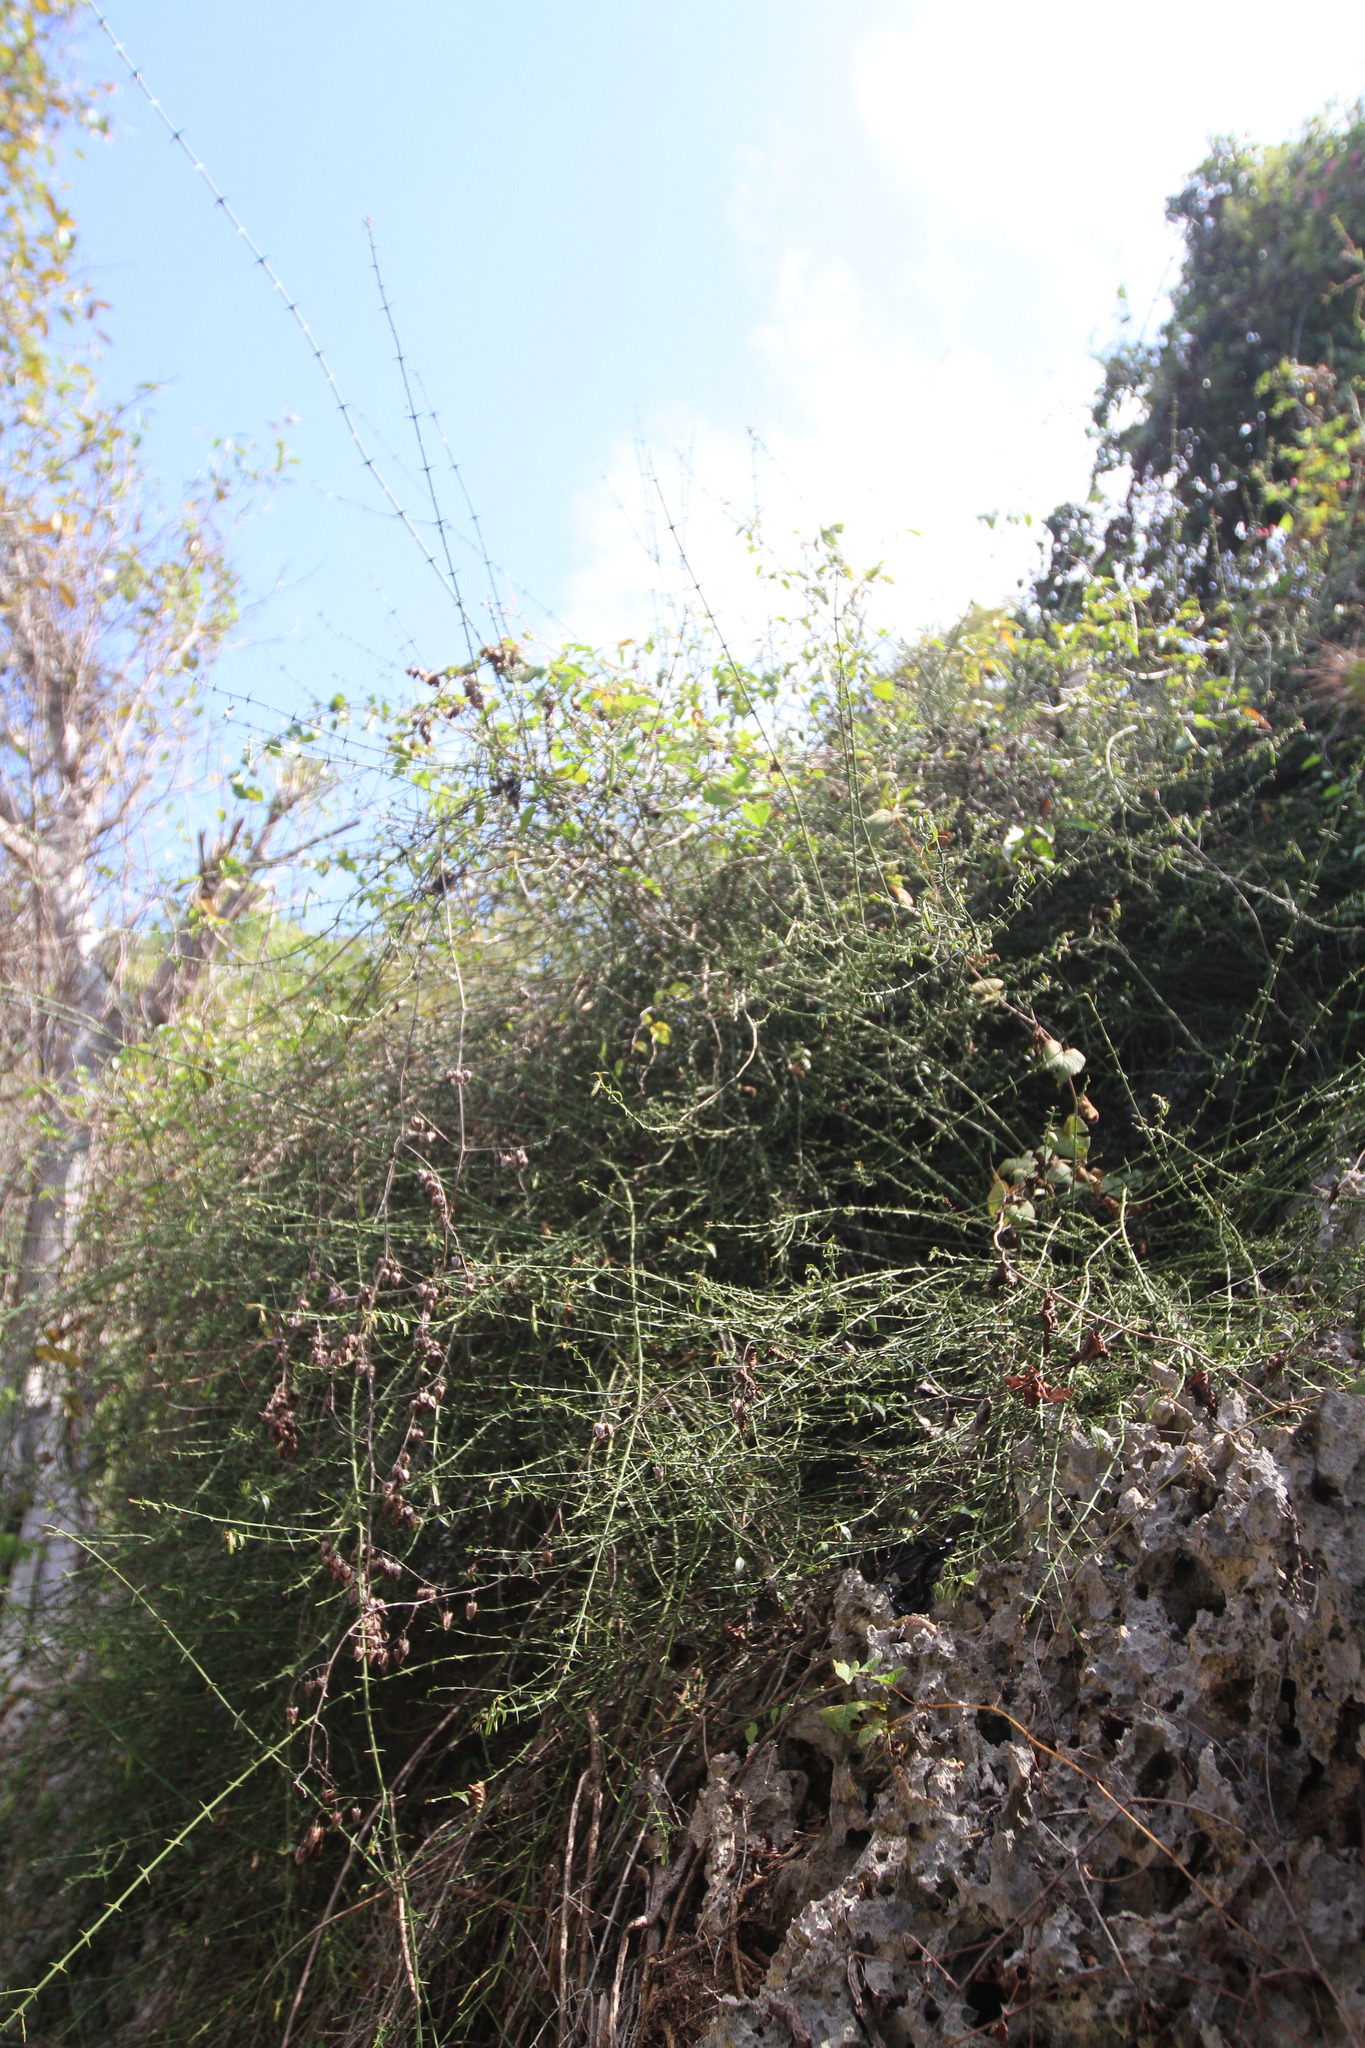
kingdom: Plantae
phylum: Tracheophyta
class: Magnoliopsida
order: Gentianales
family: Rubiaceae
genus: Catesbaea
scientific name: Catesbaea ekmaniana
